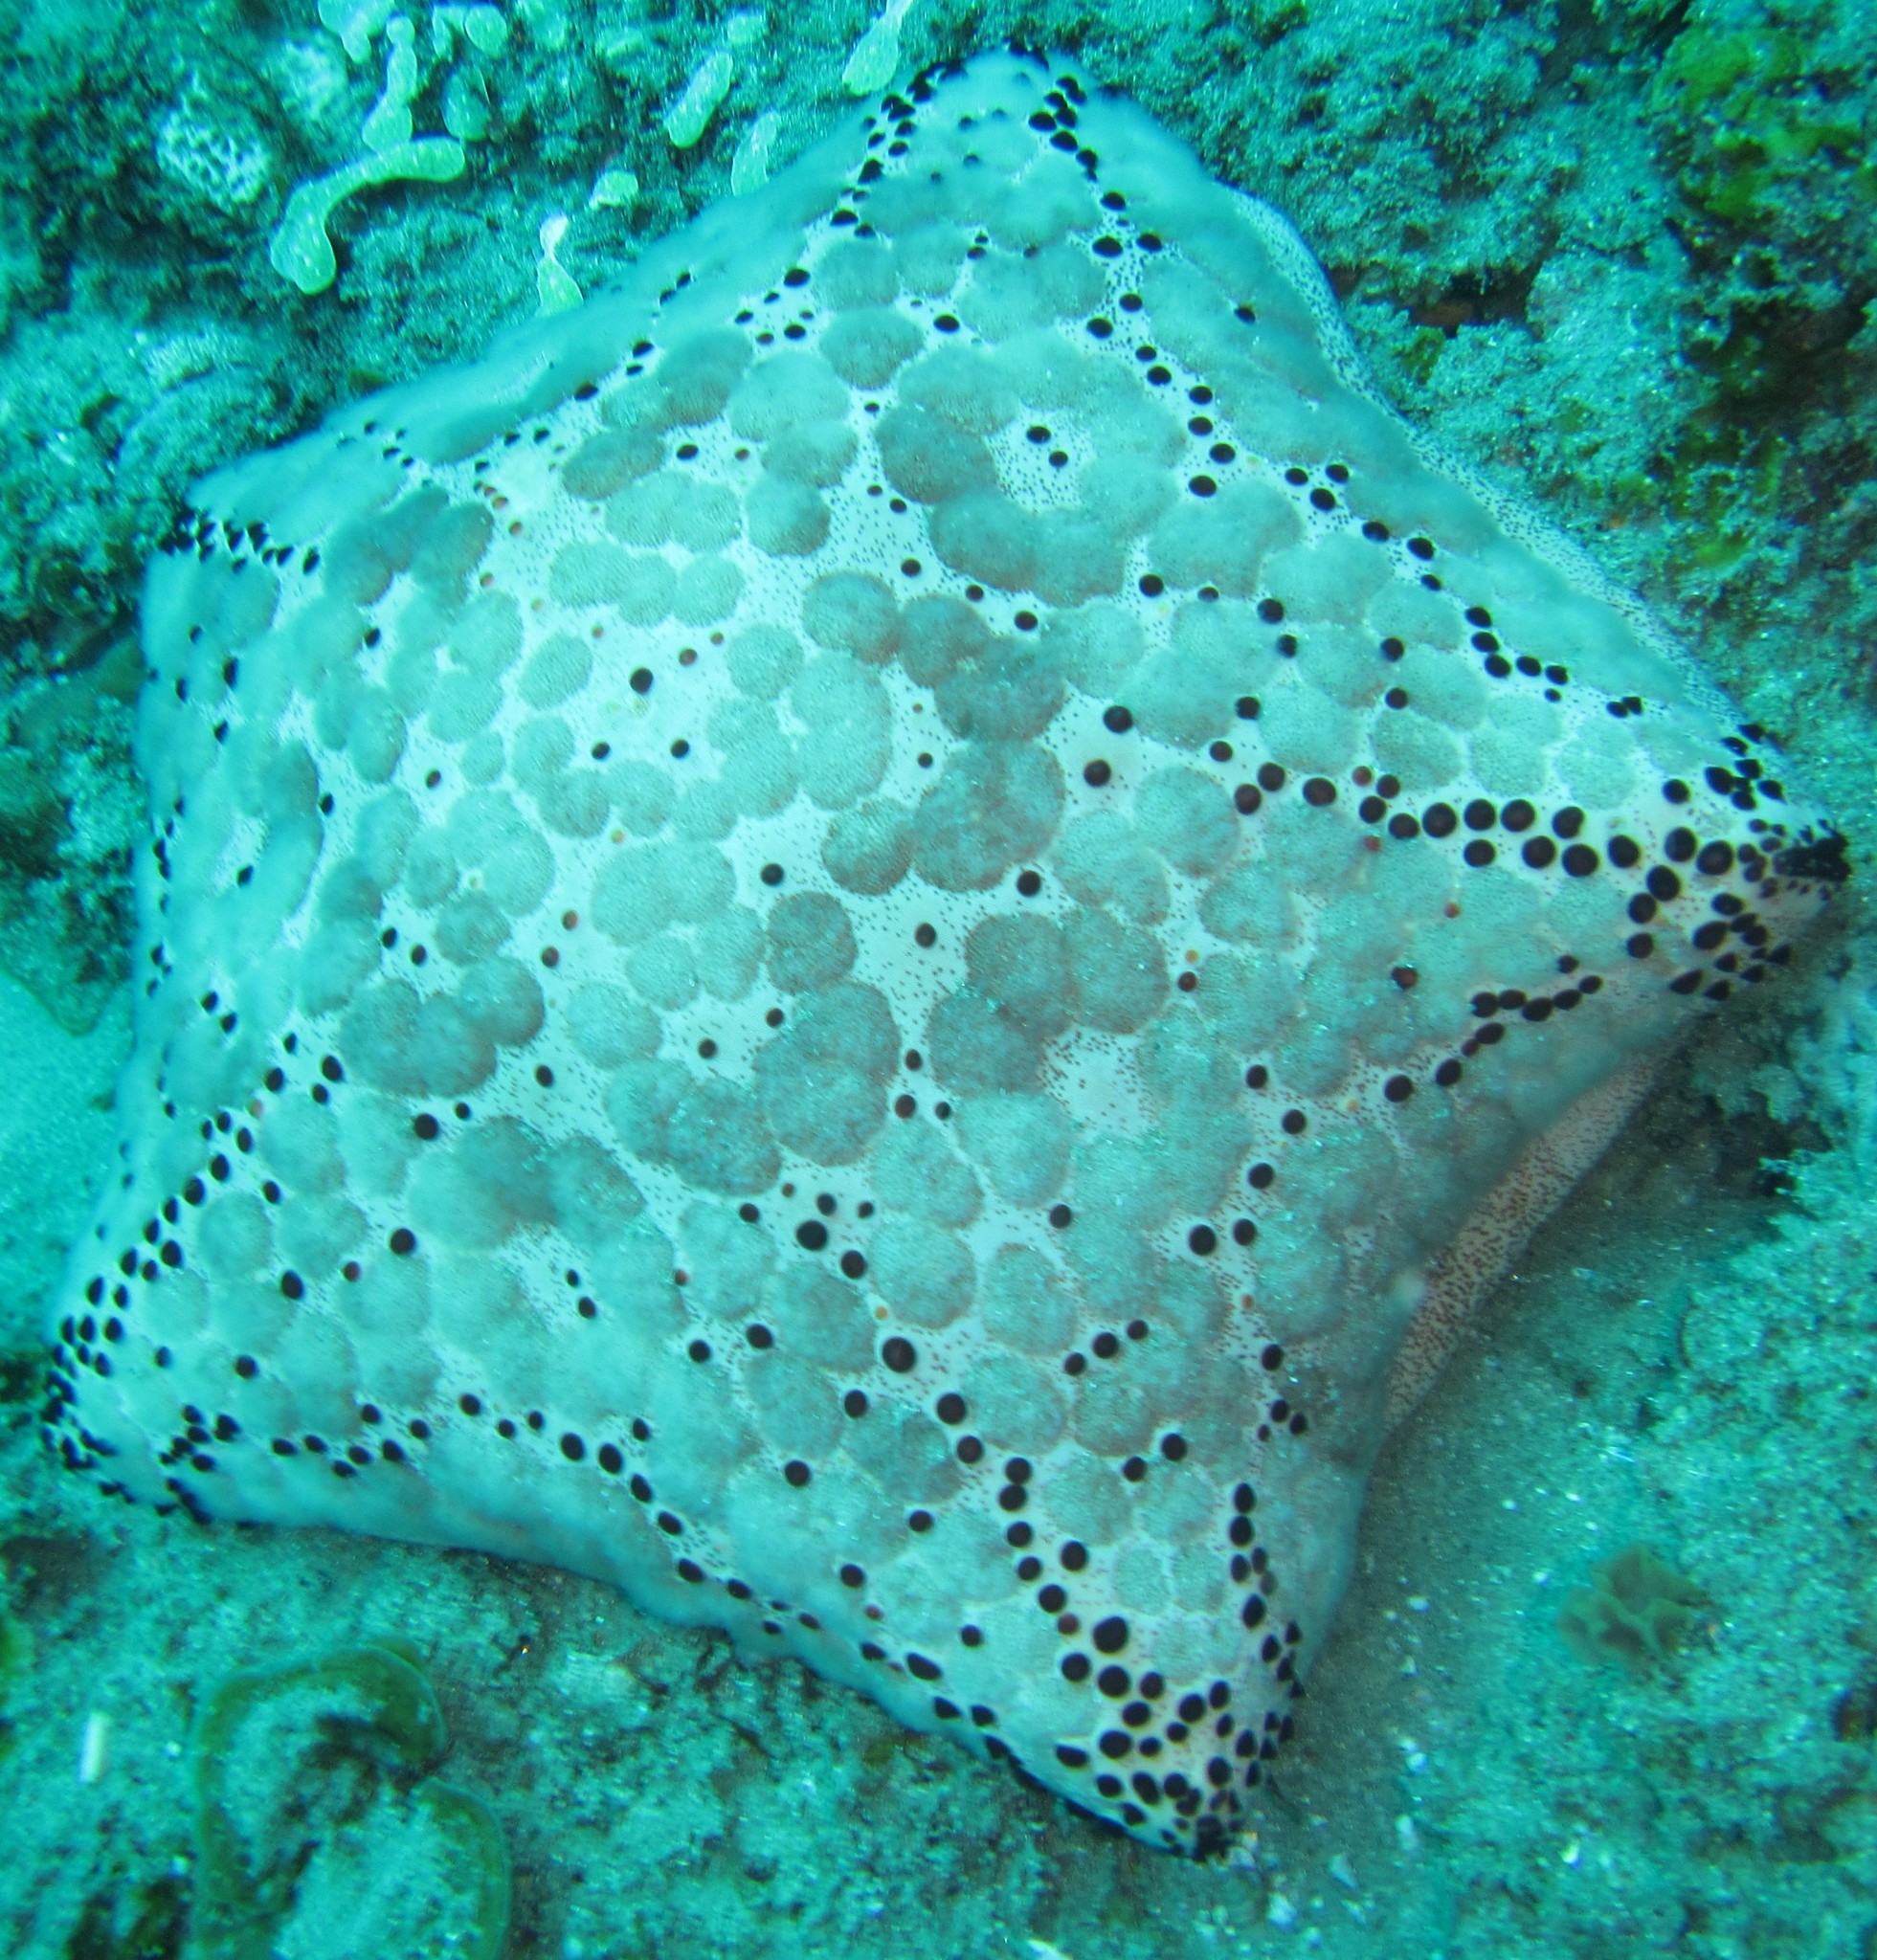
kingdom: Animalia
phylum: Echinodermata
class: Asteroidea
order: Valvatida
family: Oreasteridae
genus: Culcita
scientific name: Culcita schmideliana
